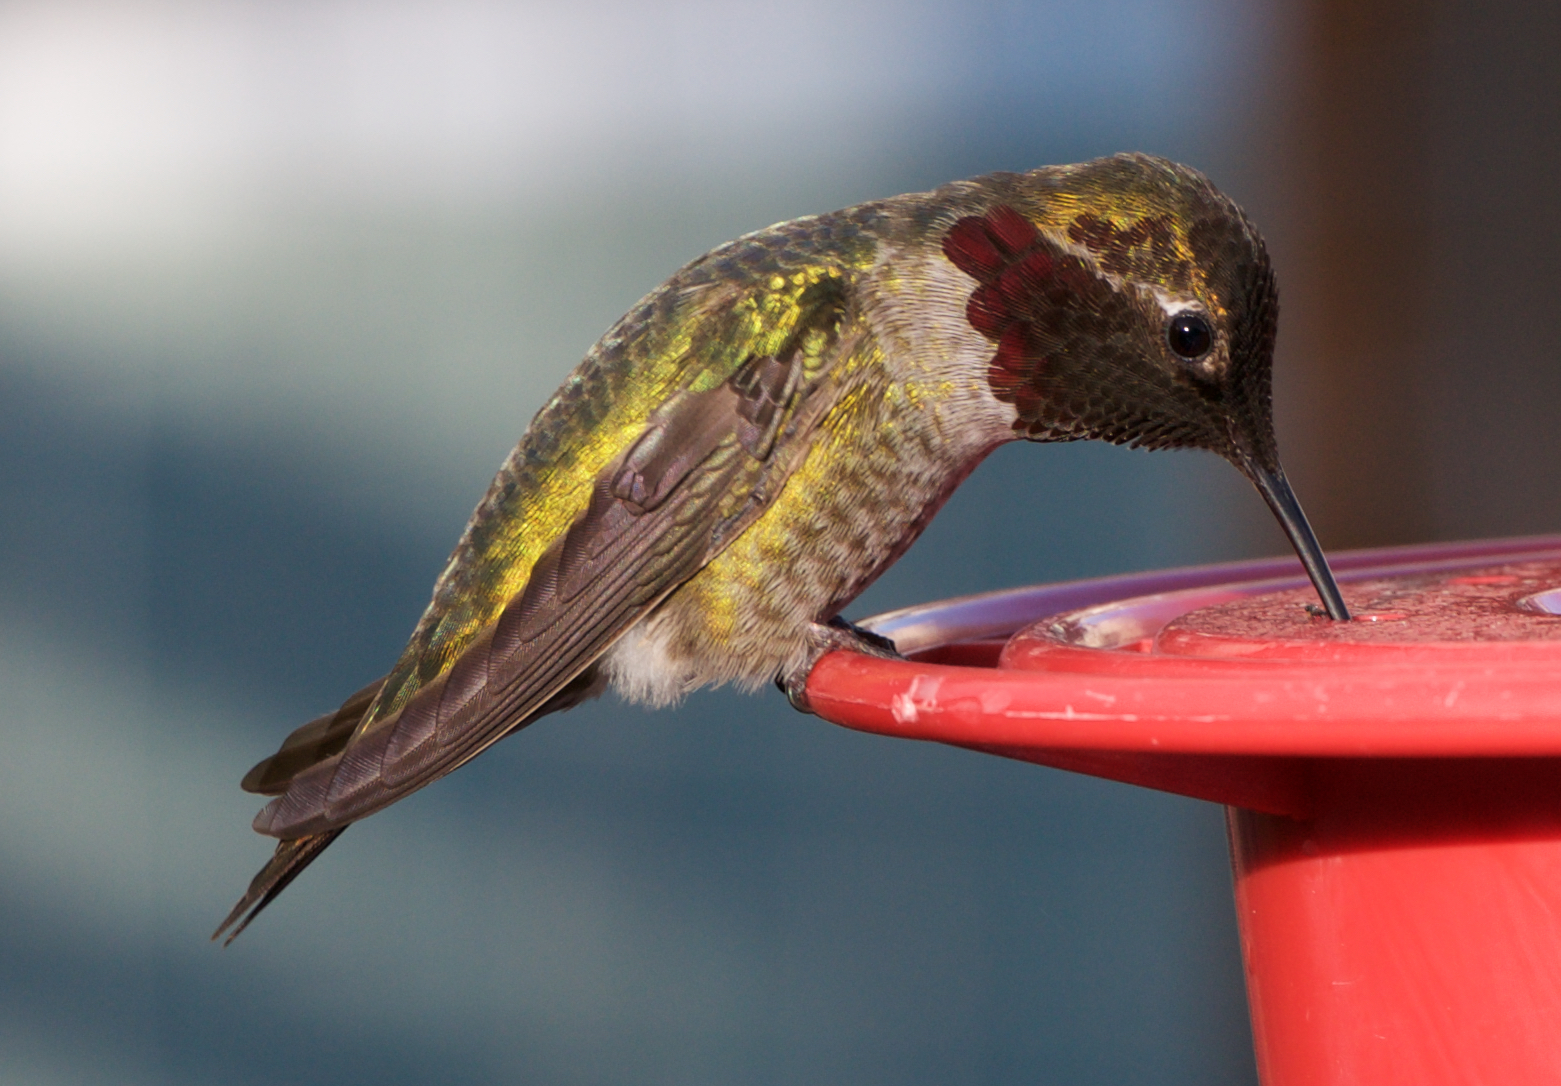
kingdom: Animalia
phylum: Chordata
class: Aves
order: Apodiformes
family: Trochilidae
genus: Calypte
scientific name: Calypte anna
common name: Anna's hummingbird
